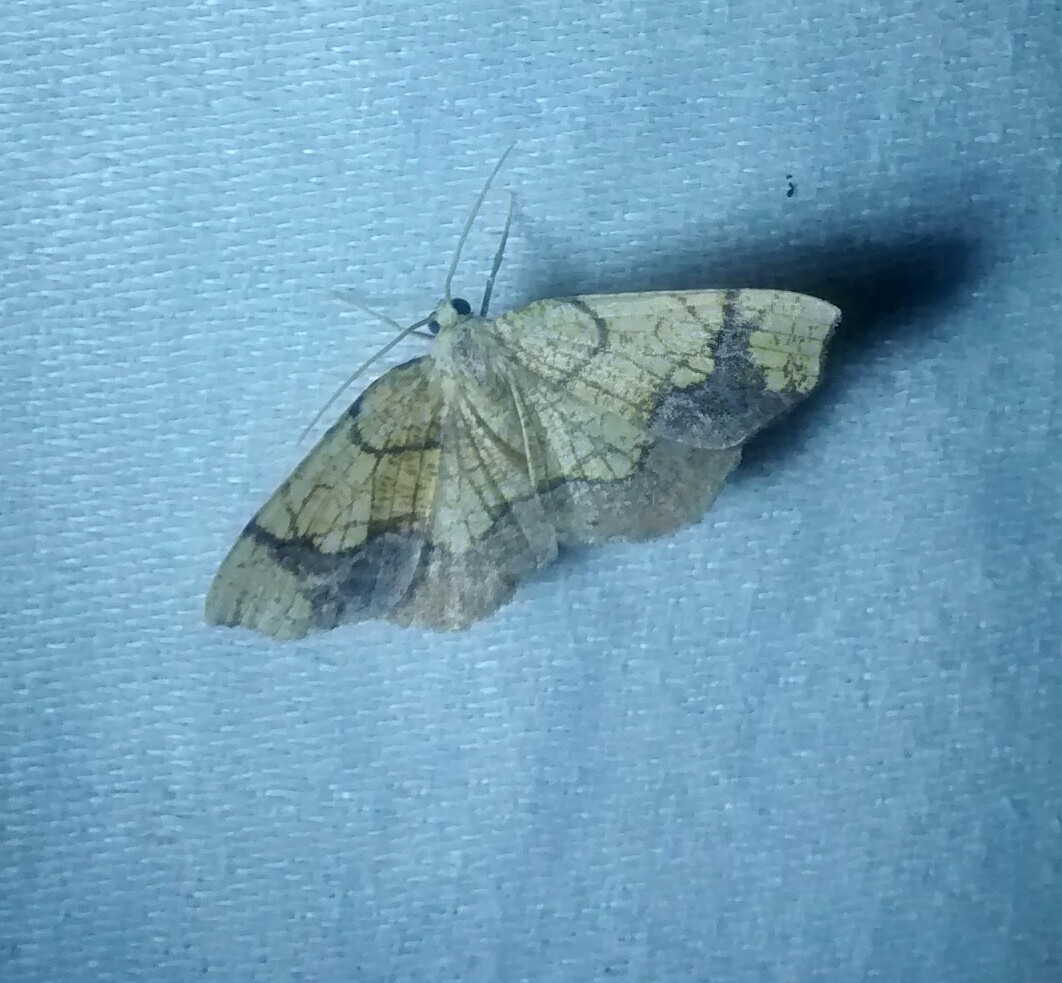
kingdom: Animalia
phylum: Arthropoda
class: Insecta
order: Lepidoptera
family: Geometridae
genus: Nematocampa
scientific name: Nematocampa resistaria
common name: Horned spanworm moth
